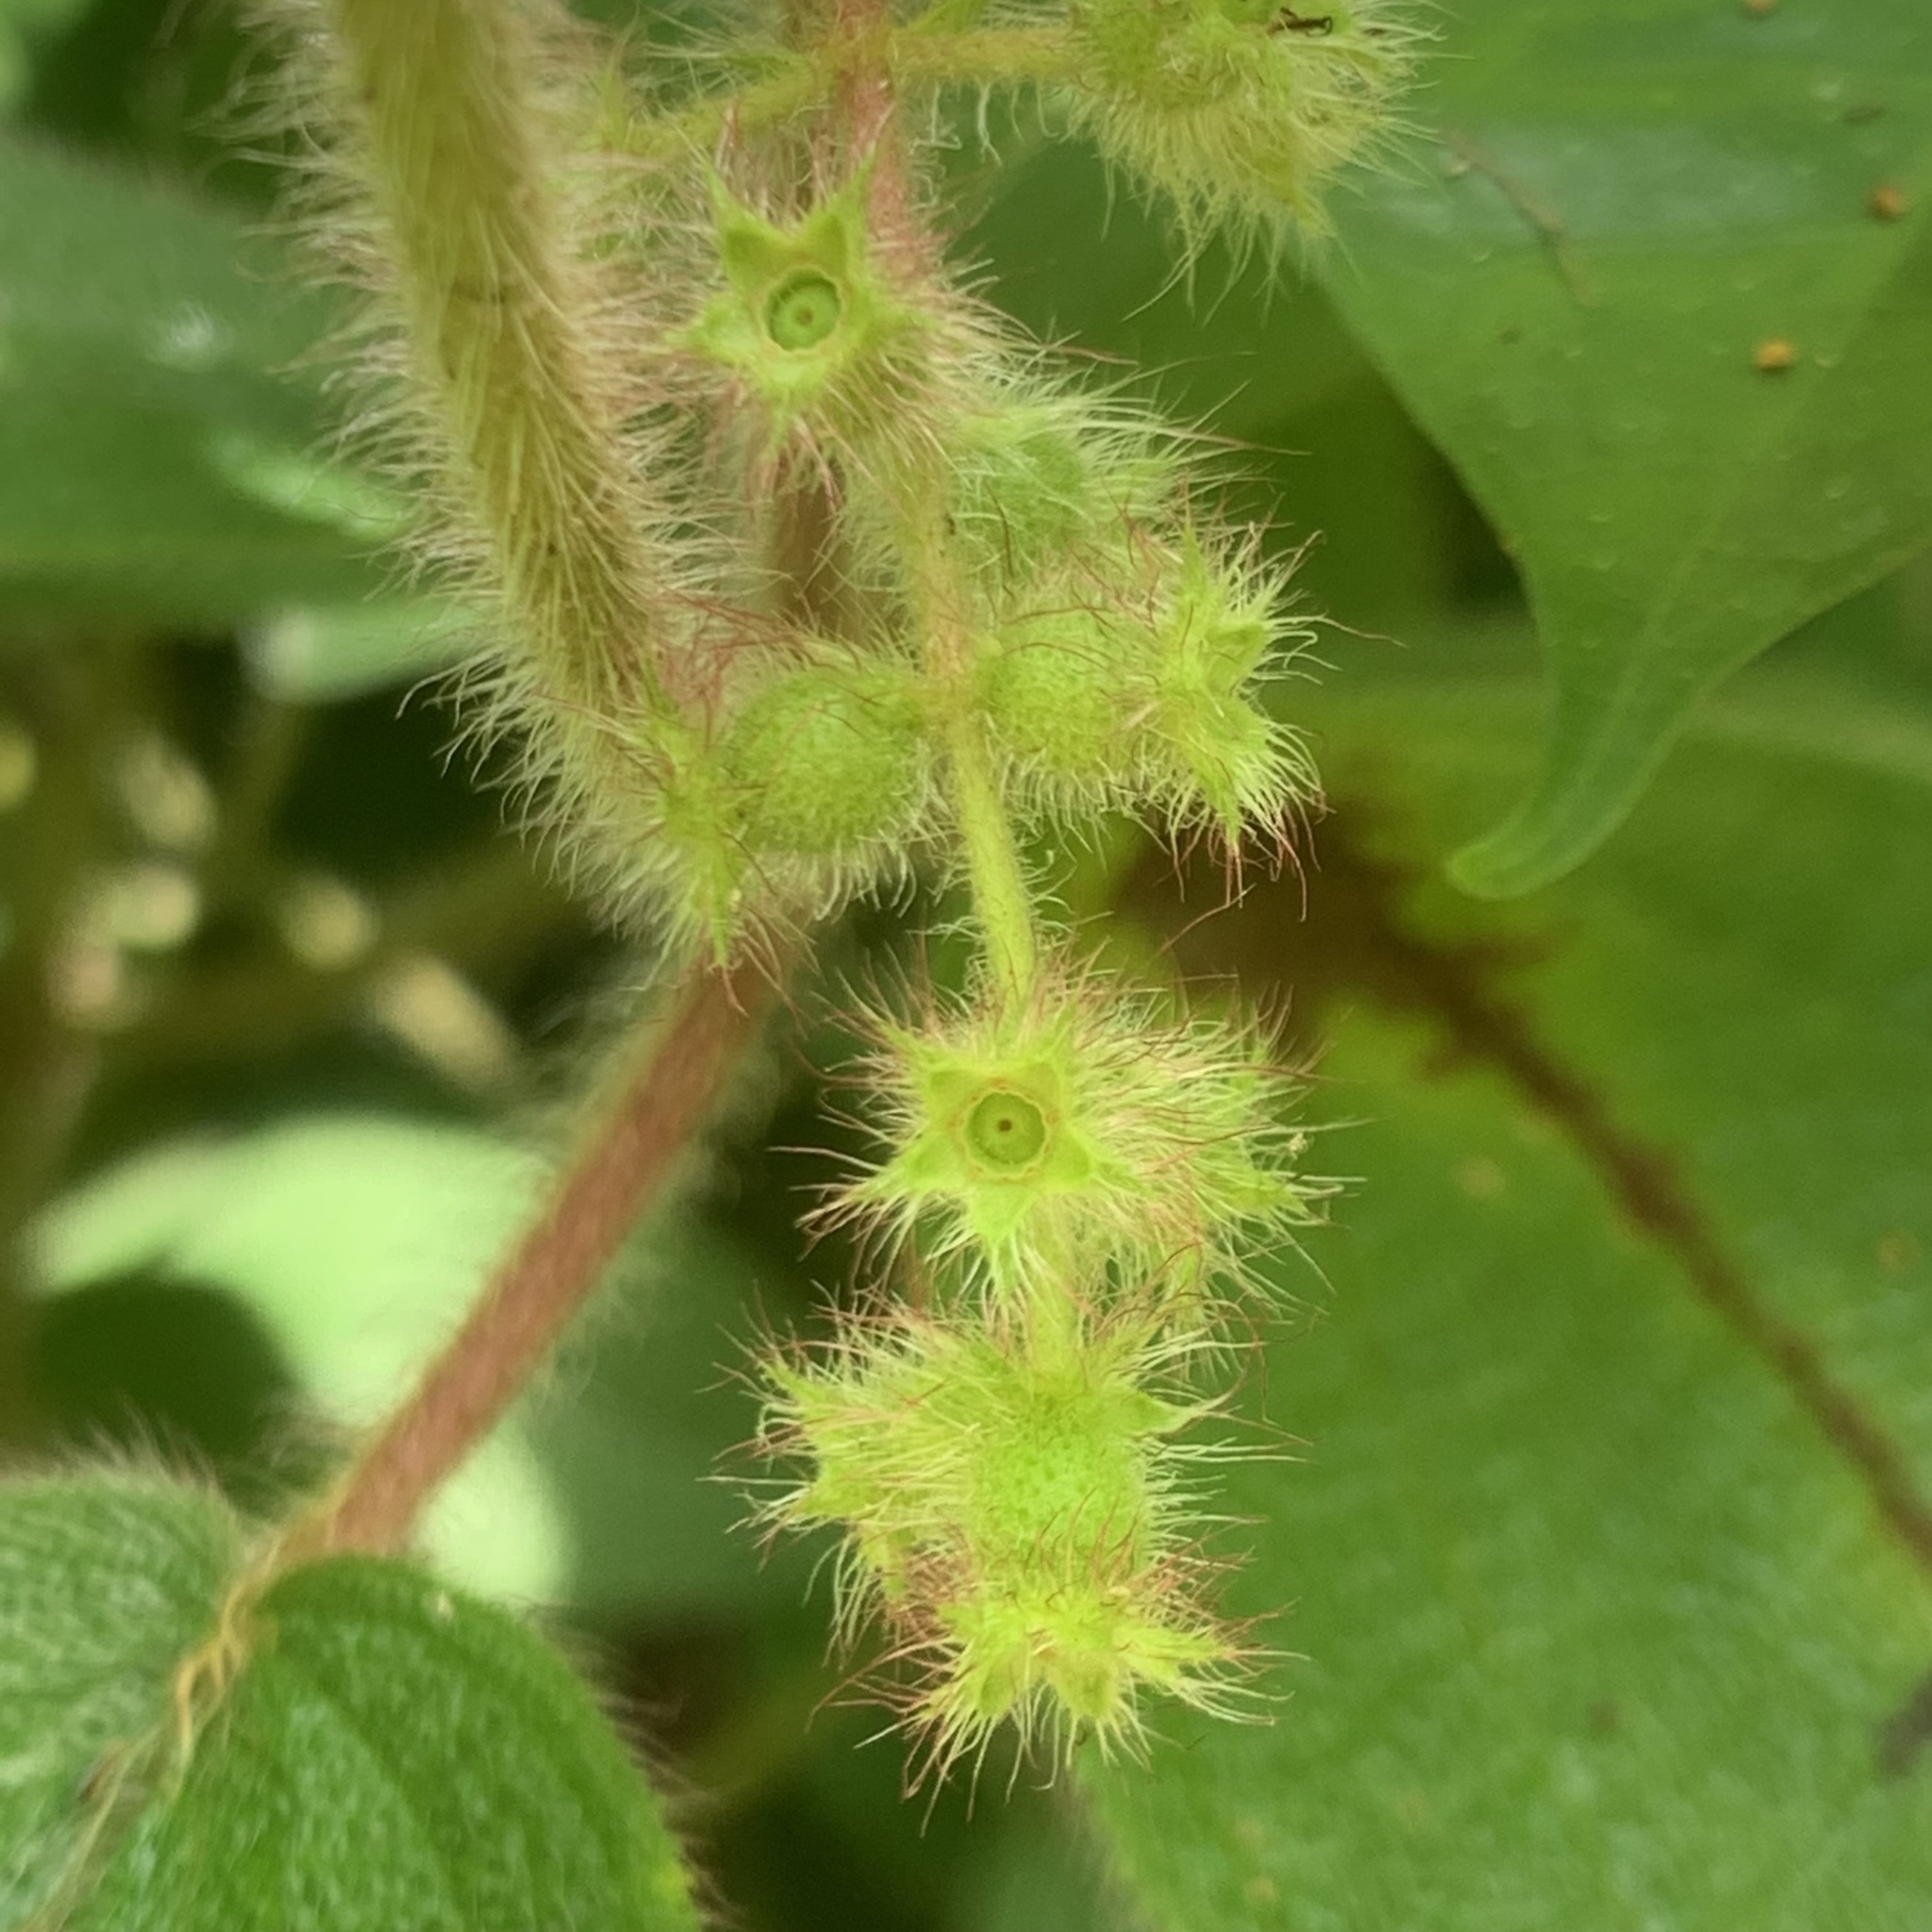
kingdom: Plantae
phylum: Tracheophyta
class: Magnoliopsida
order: Myrtales
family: Melastomataceae
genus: Miconia
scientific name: Miconia dependens
